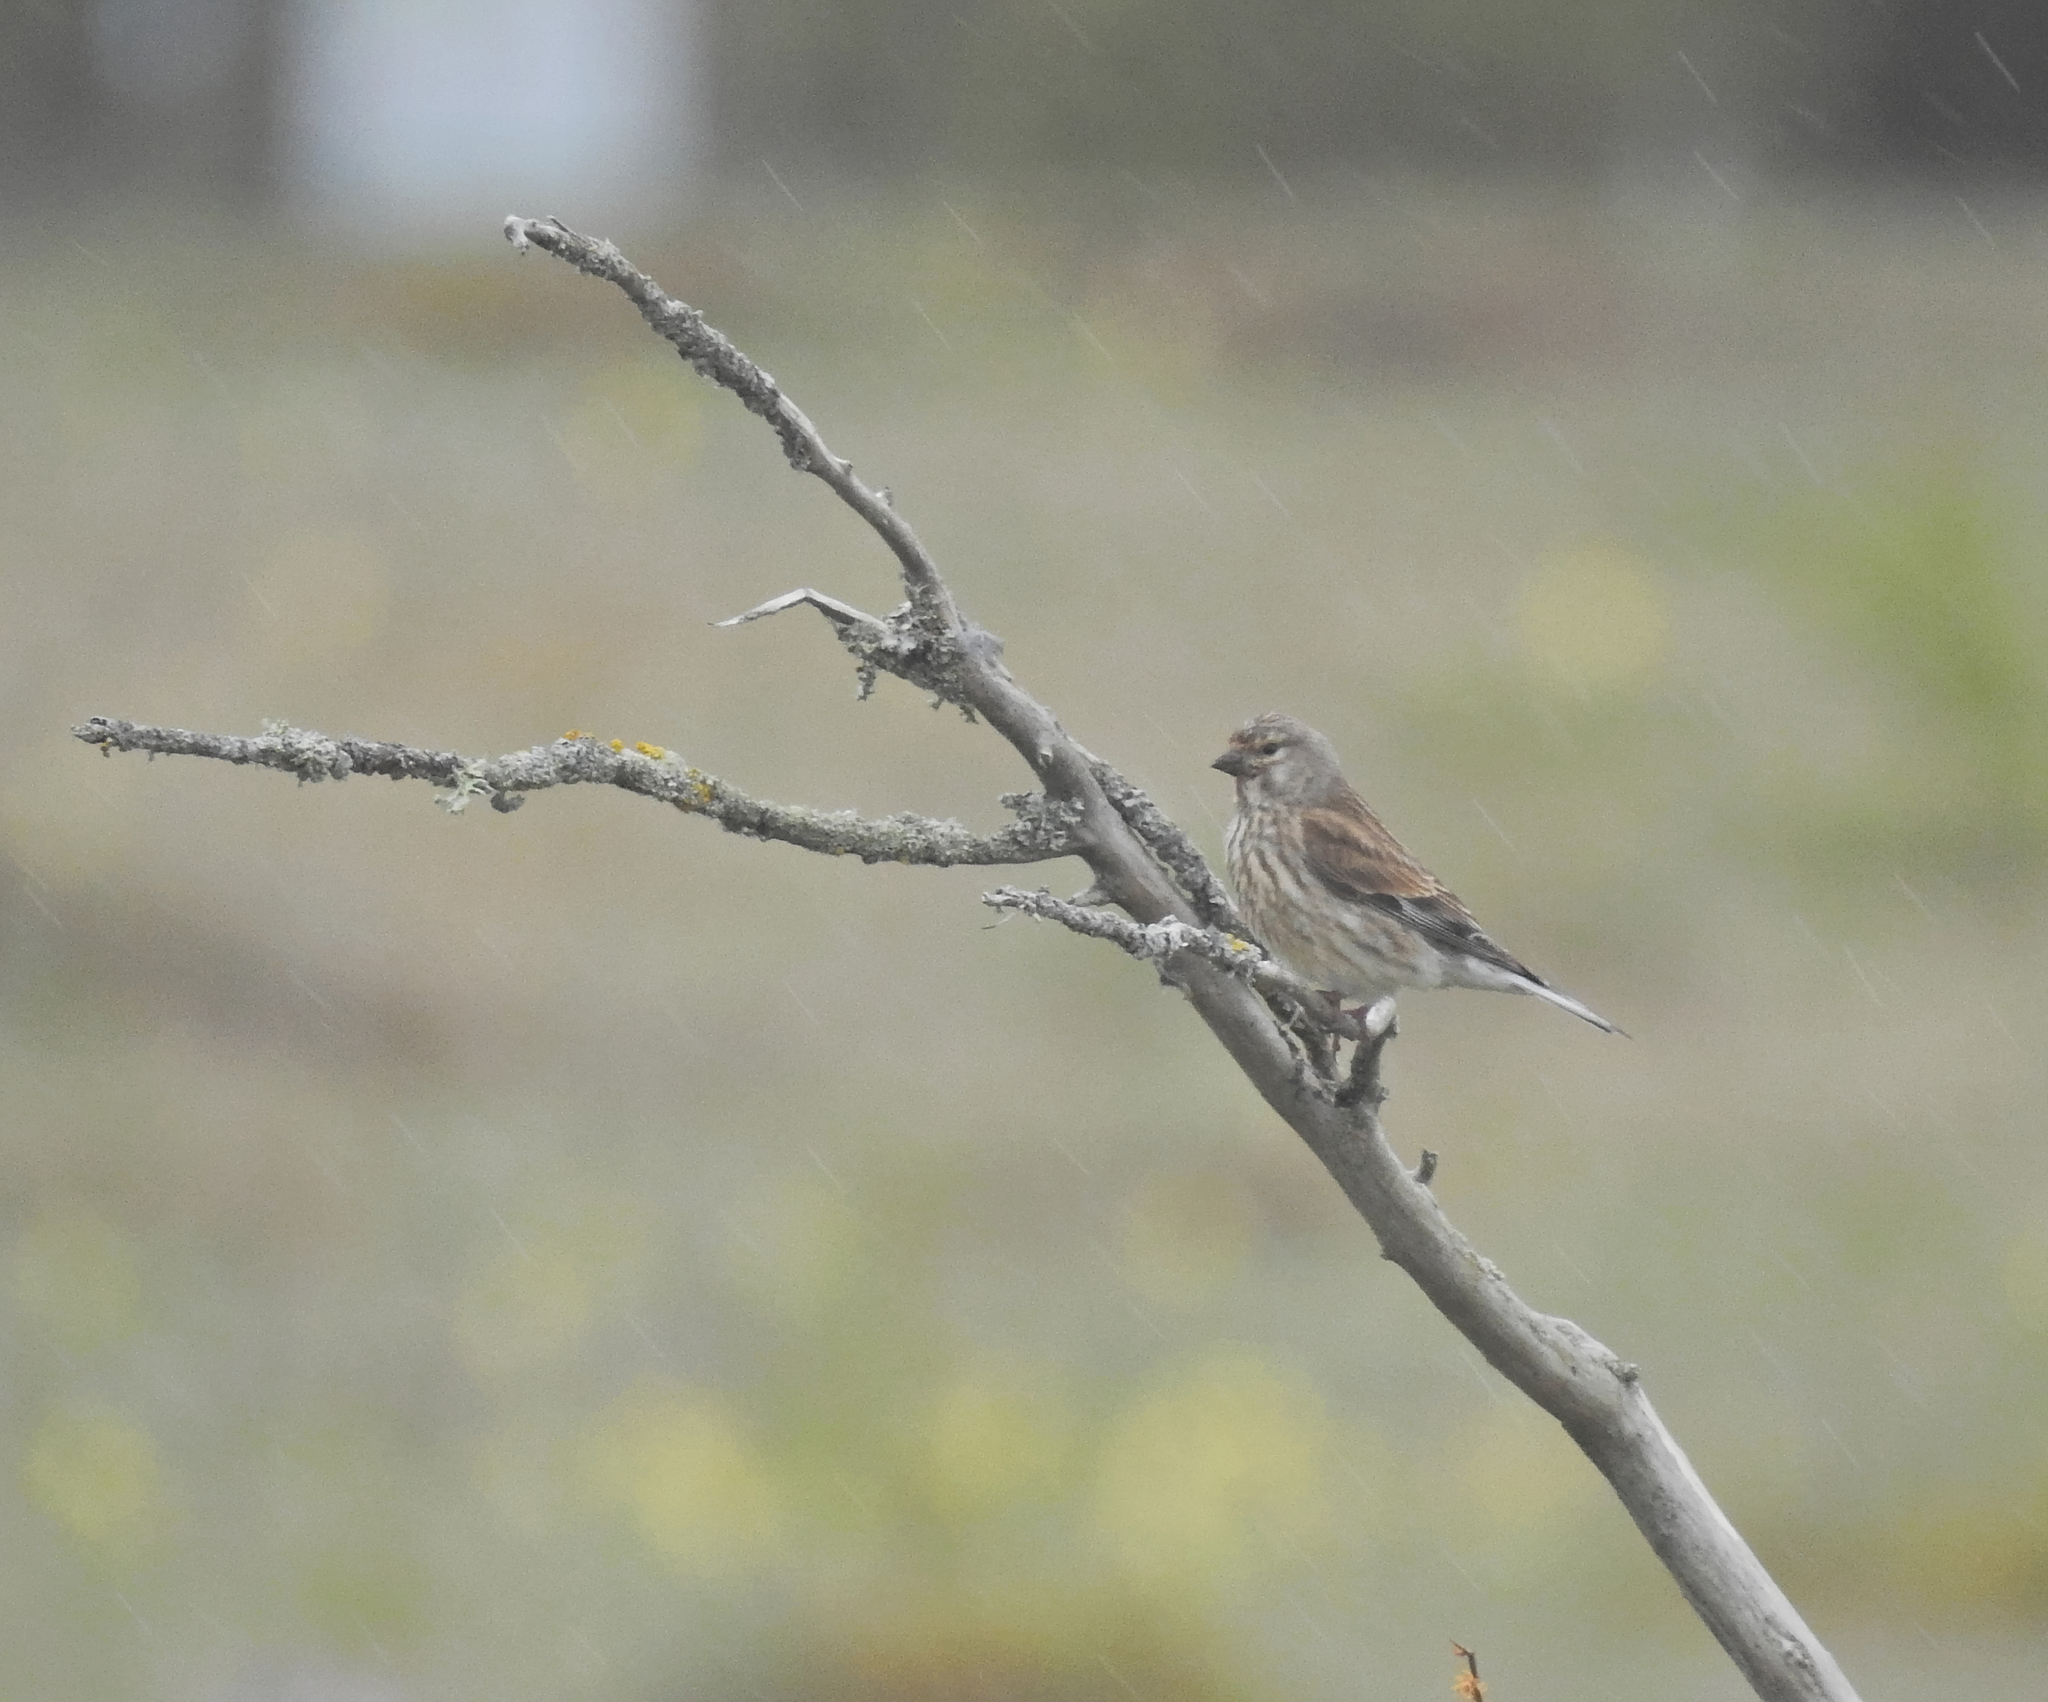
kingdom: Animalia
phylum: Chordata
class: Aves
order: Passeriformes
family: Fringillidae
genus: Linaria
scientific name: Linaria cannabina
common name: Common linnet
